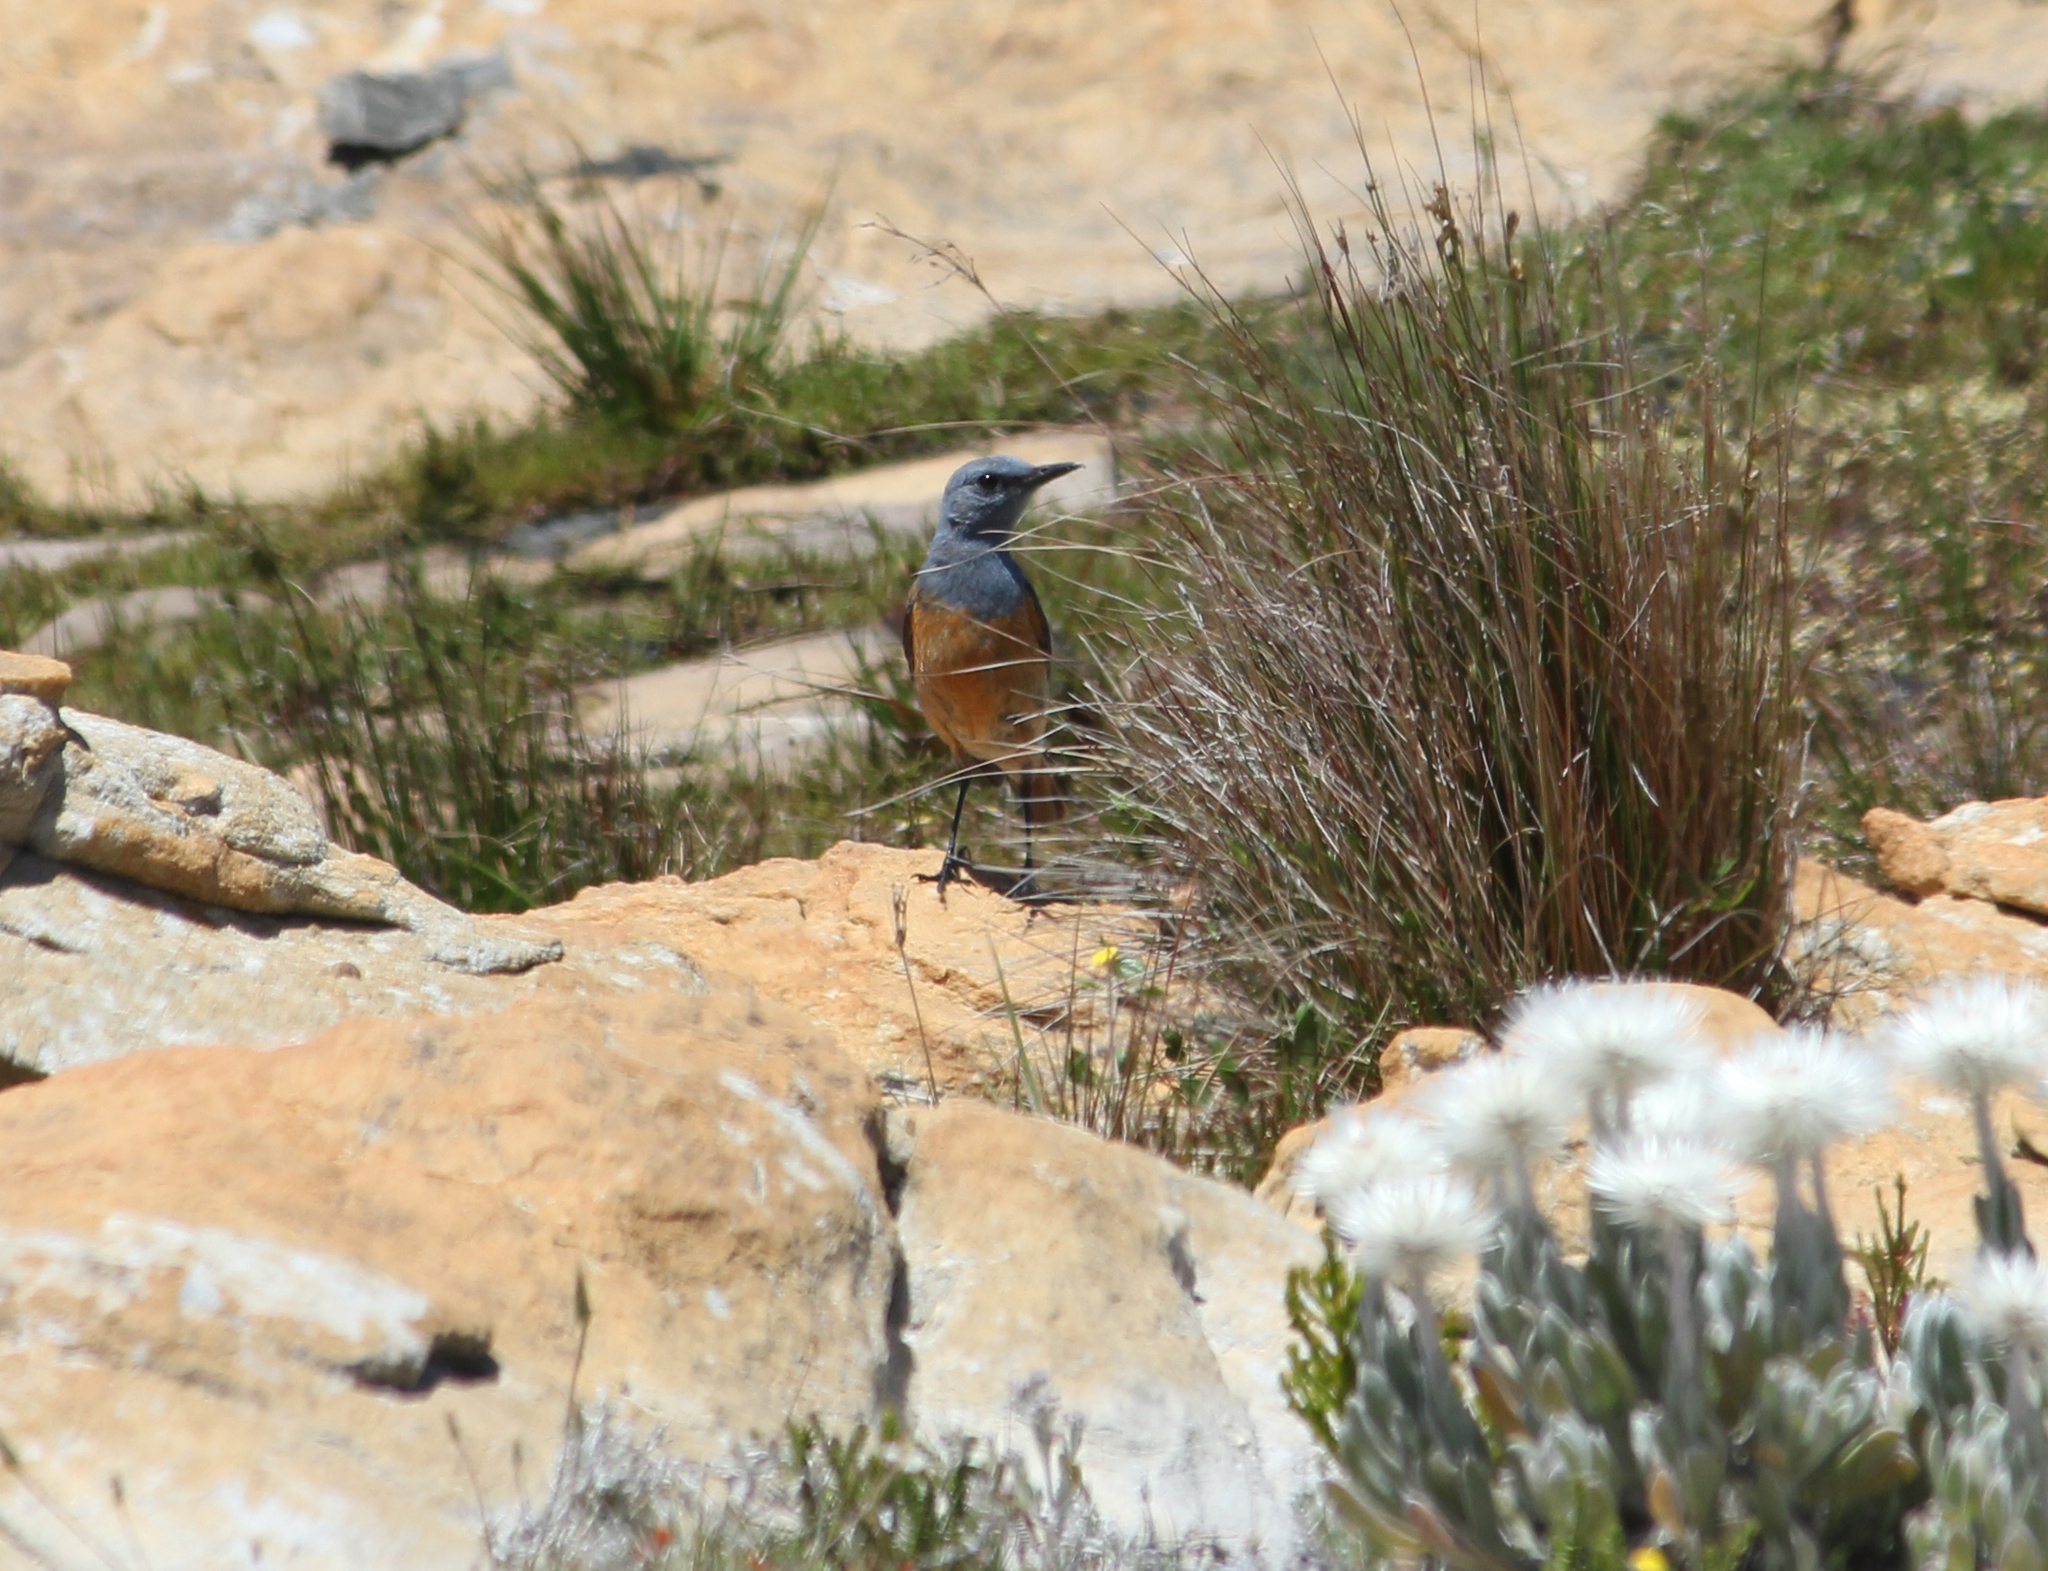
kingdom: Animalia
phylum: Chordata
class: Aves
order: Passeriformes
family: Muscicapidae
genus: Monticola
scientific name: Monticola explorator
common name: Sentinel rock thrush
